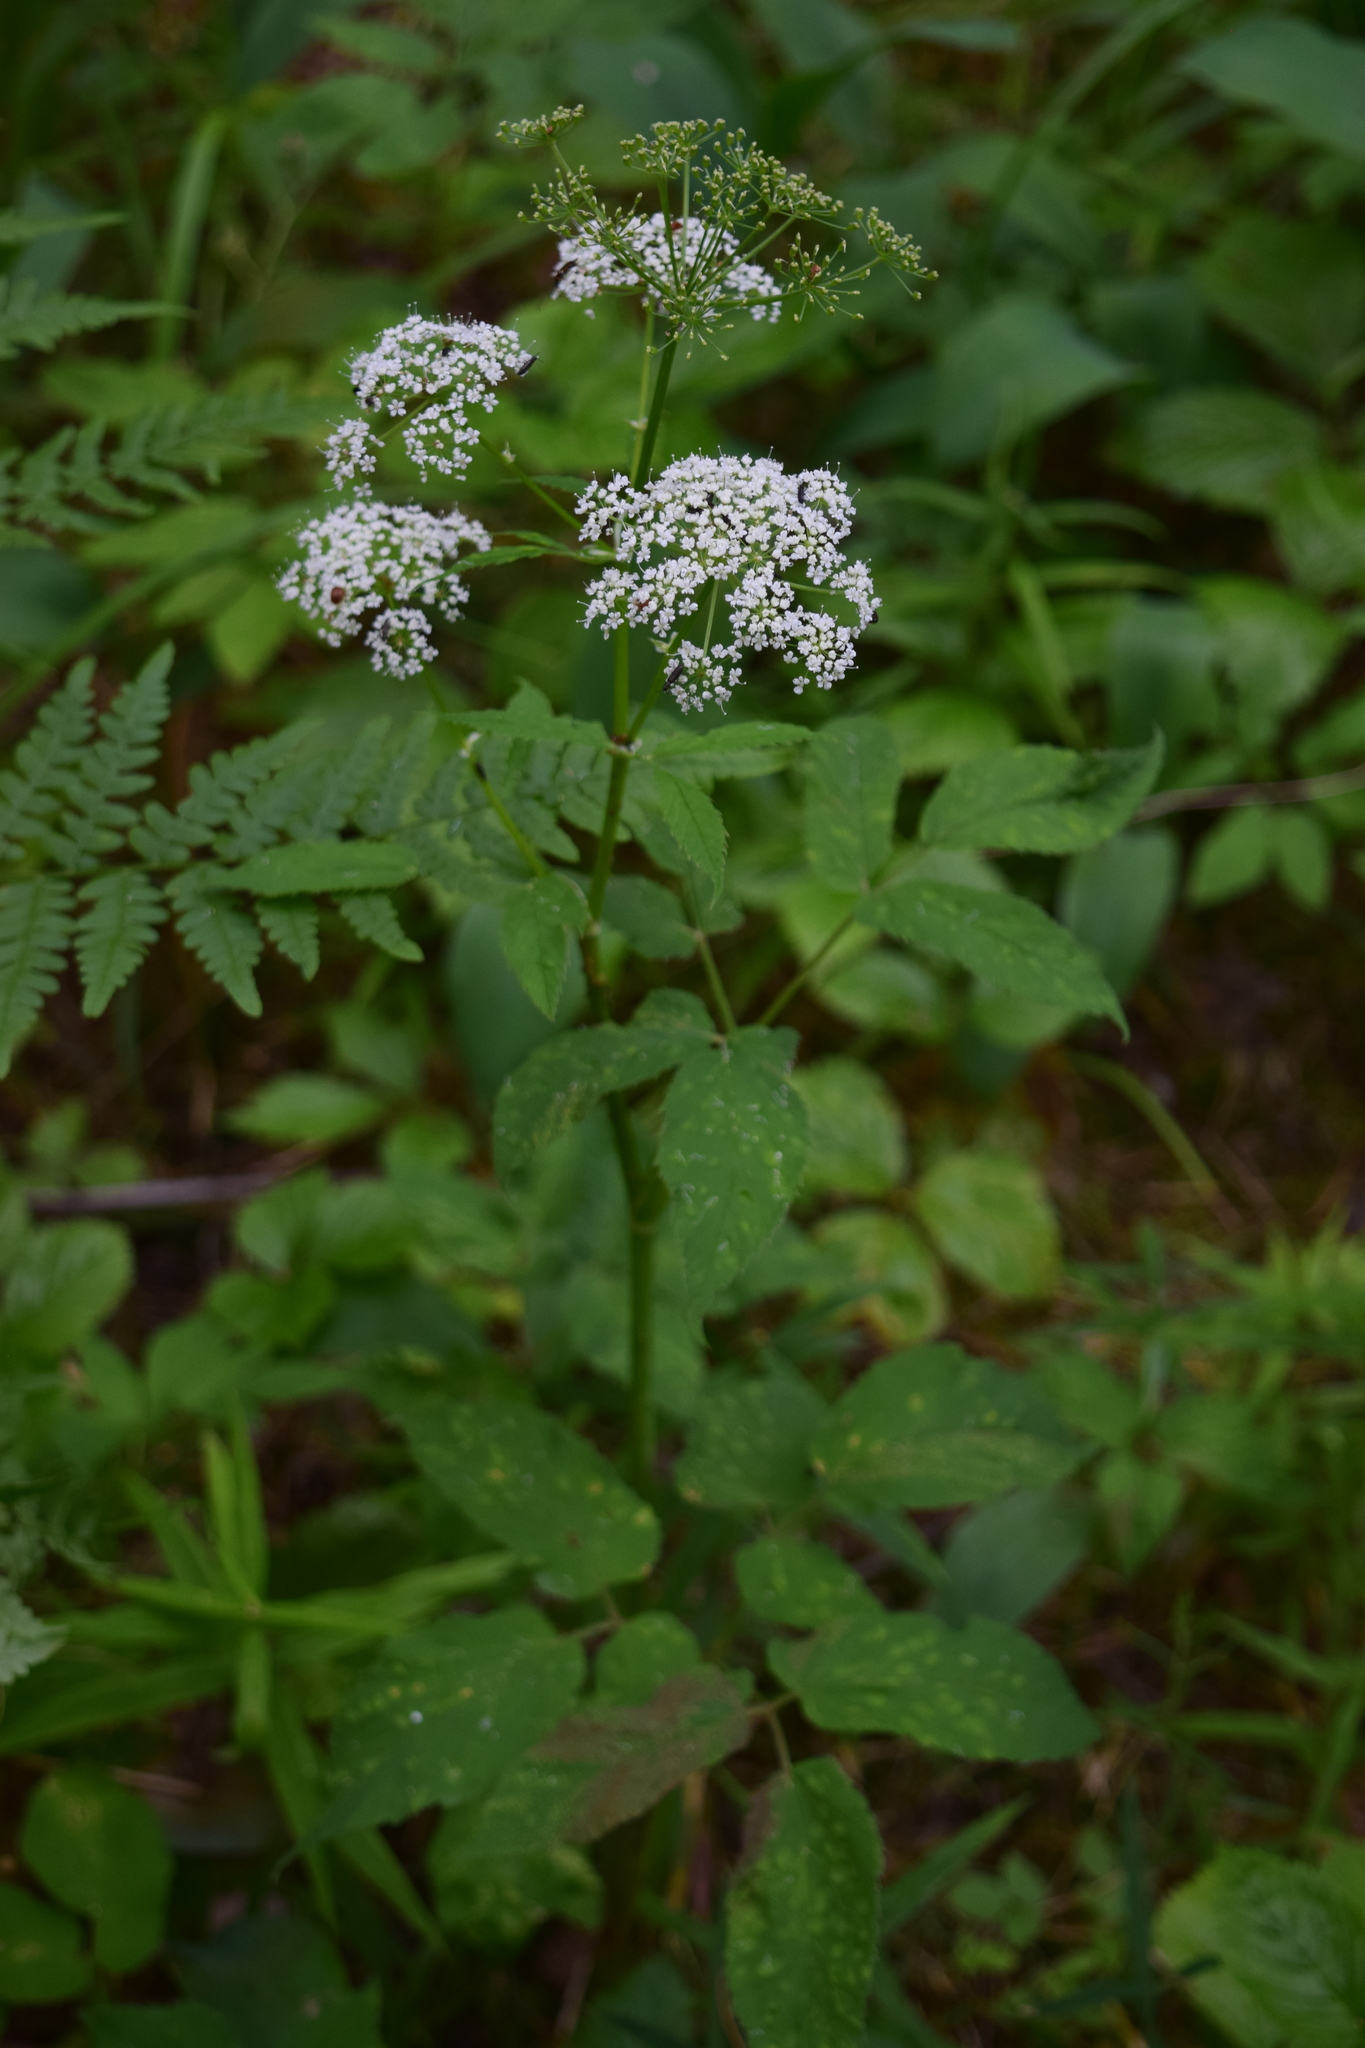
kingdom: Plantae
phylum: Tracheophyta
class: Magnoliopsida
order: Apiales
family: Apiaceae
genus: Aegopodium
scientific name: Aegopodium podagraria
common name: Ground-elder
